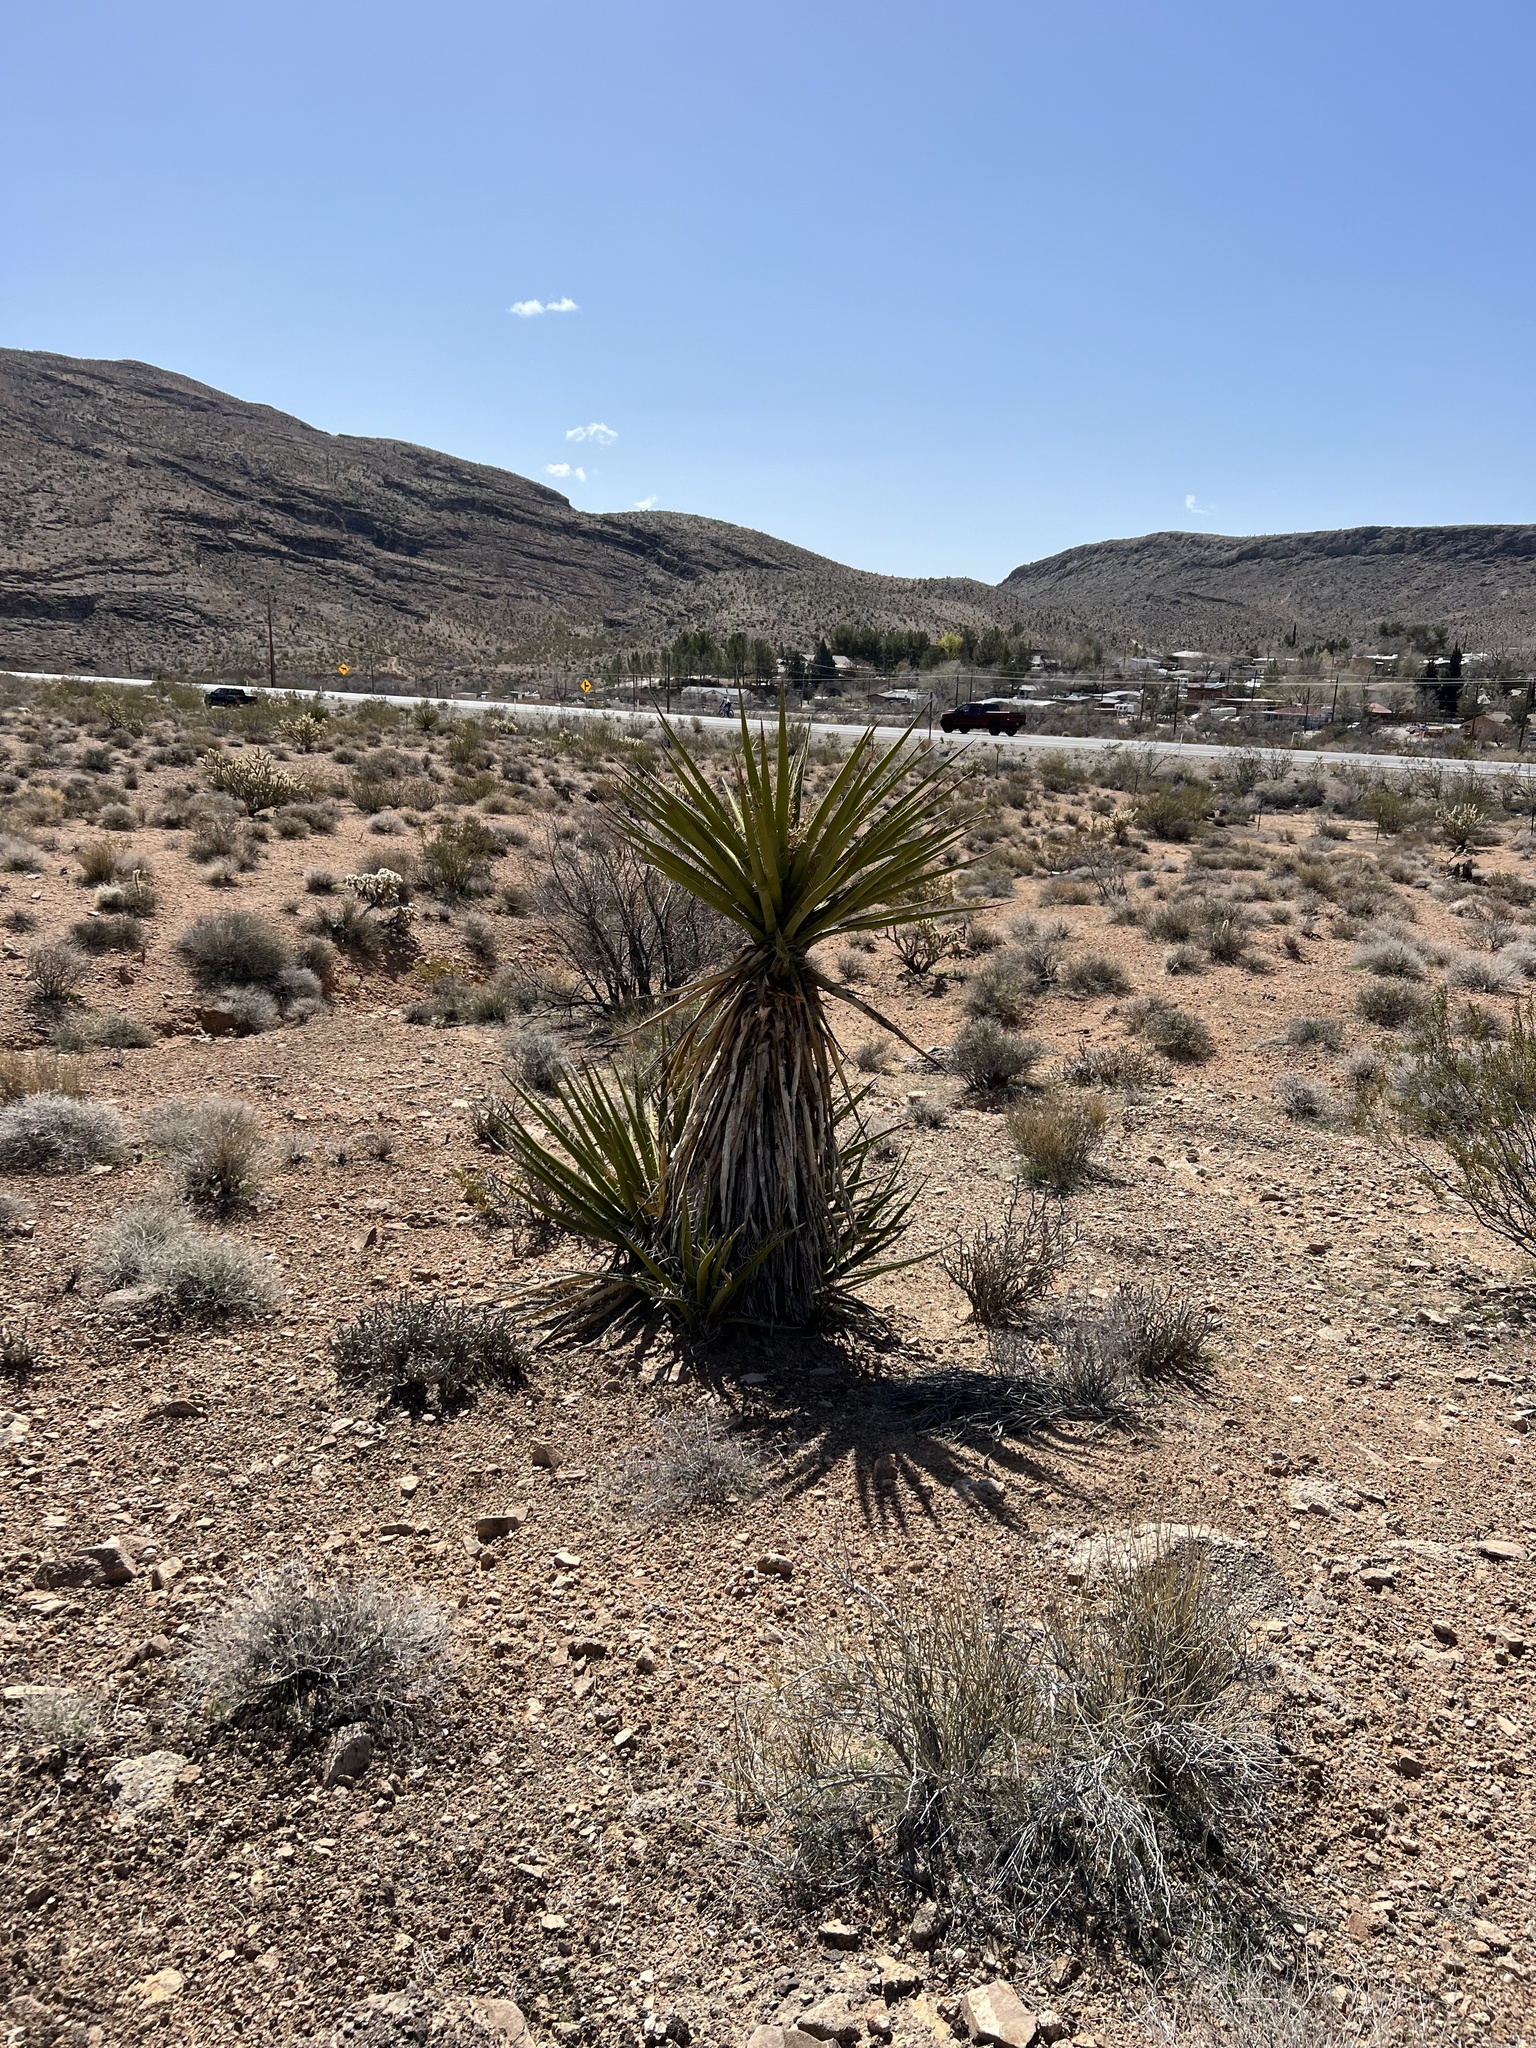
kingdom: Plantae
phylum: Tracheophyta
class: Liliopsida
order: Asparagales
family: Asparagaceae
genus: Yucca
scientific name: Yucca schidigera
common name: Mojave yucca
